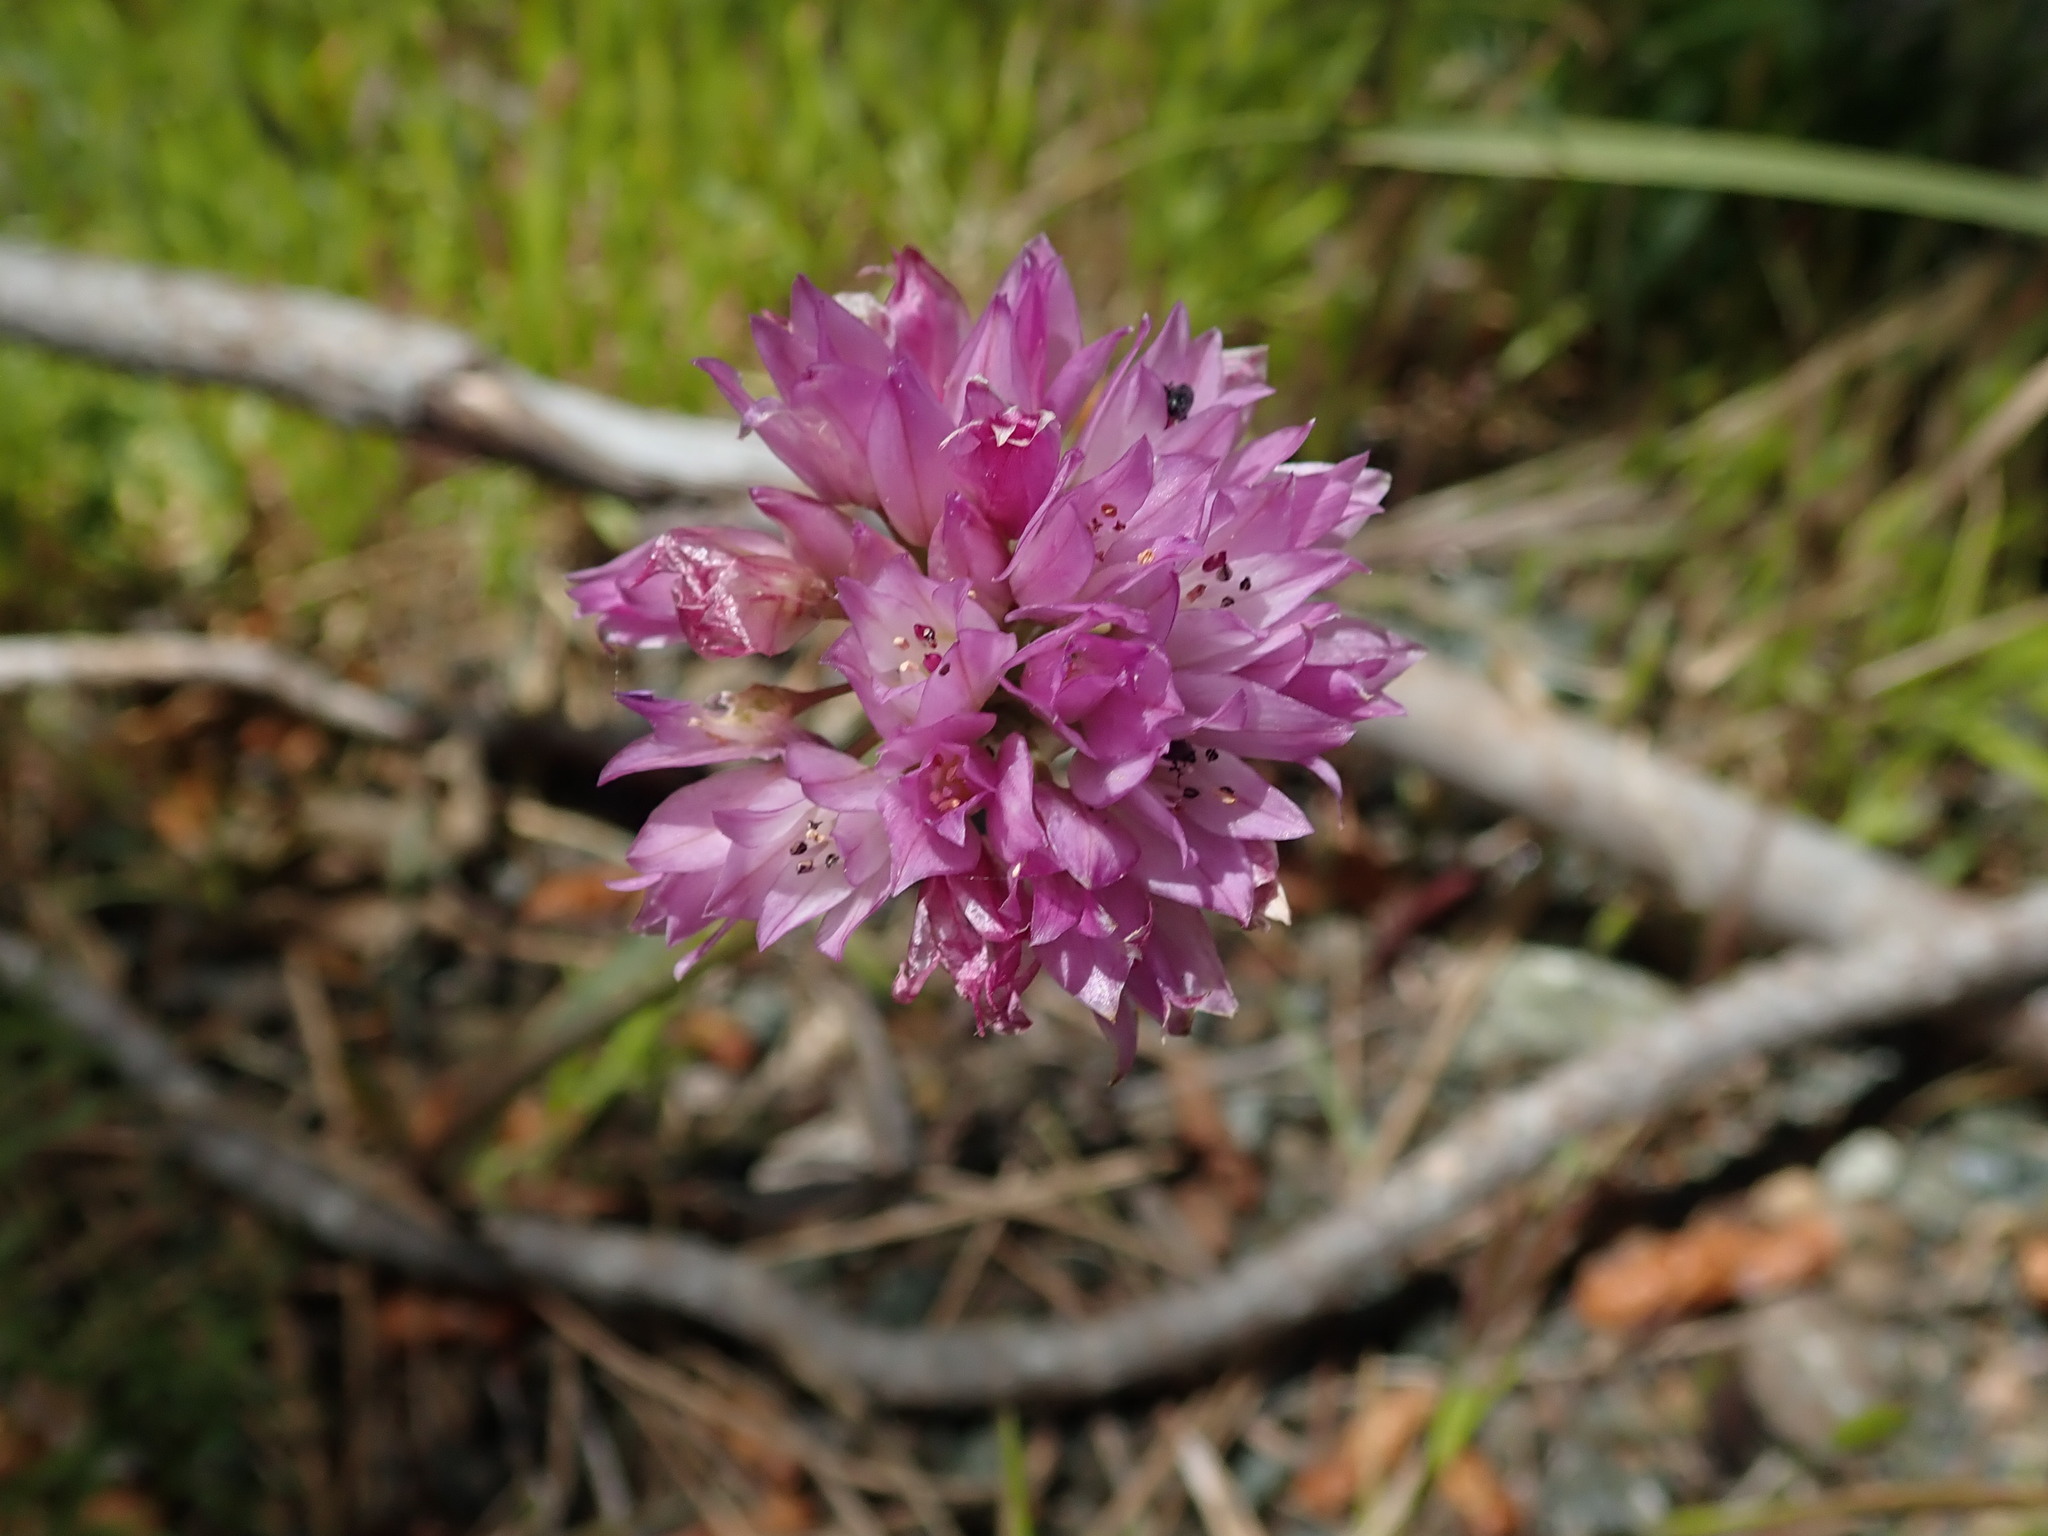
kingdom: Plantae
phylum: Tracheophyta
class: Liliopsida
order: Asparagales
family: Amaryllidaceae
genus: Allium
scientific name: Allium serra
